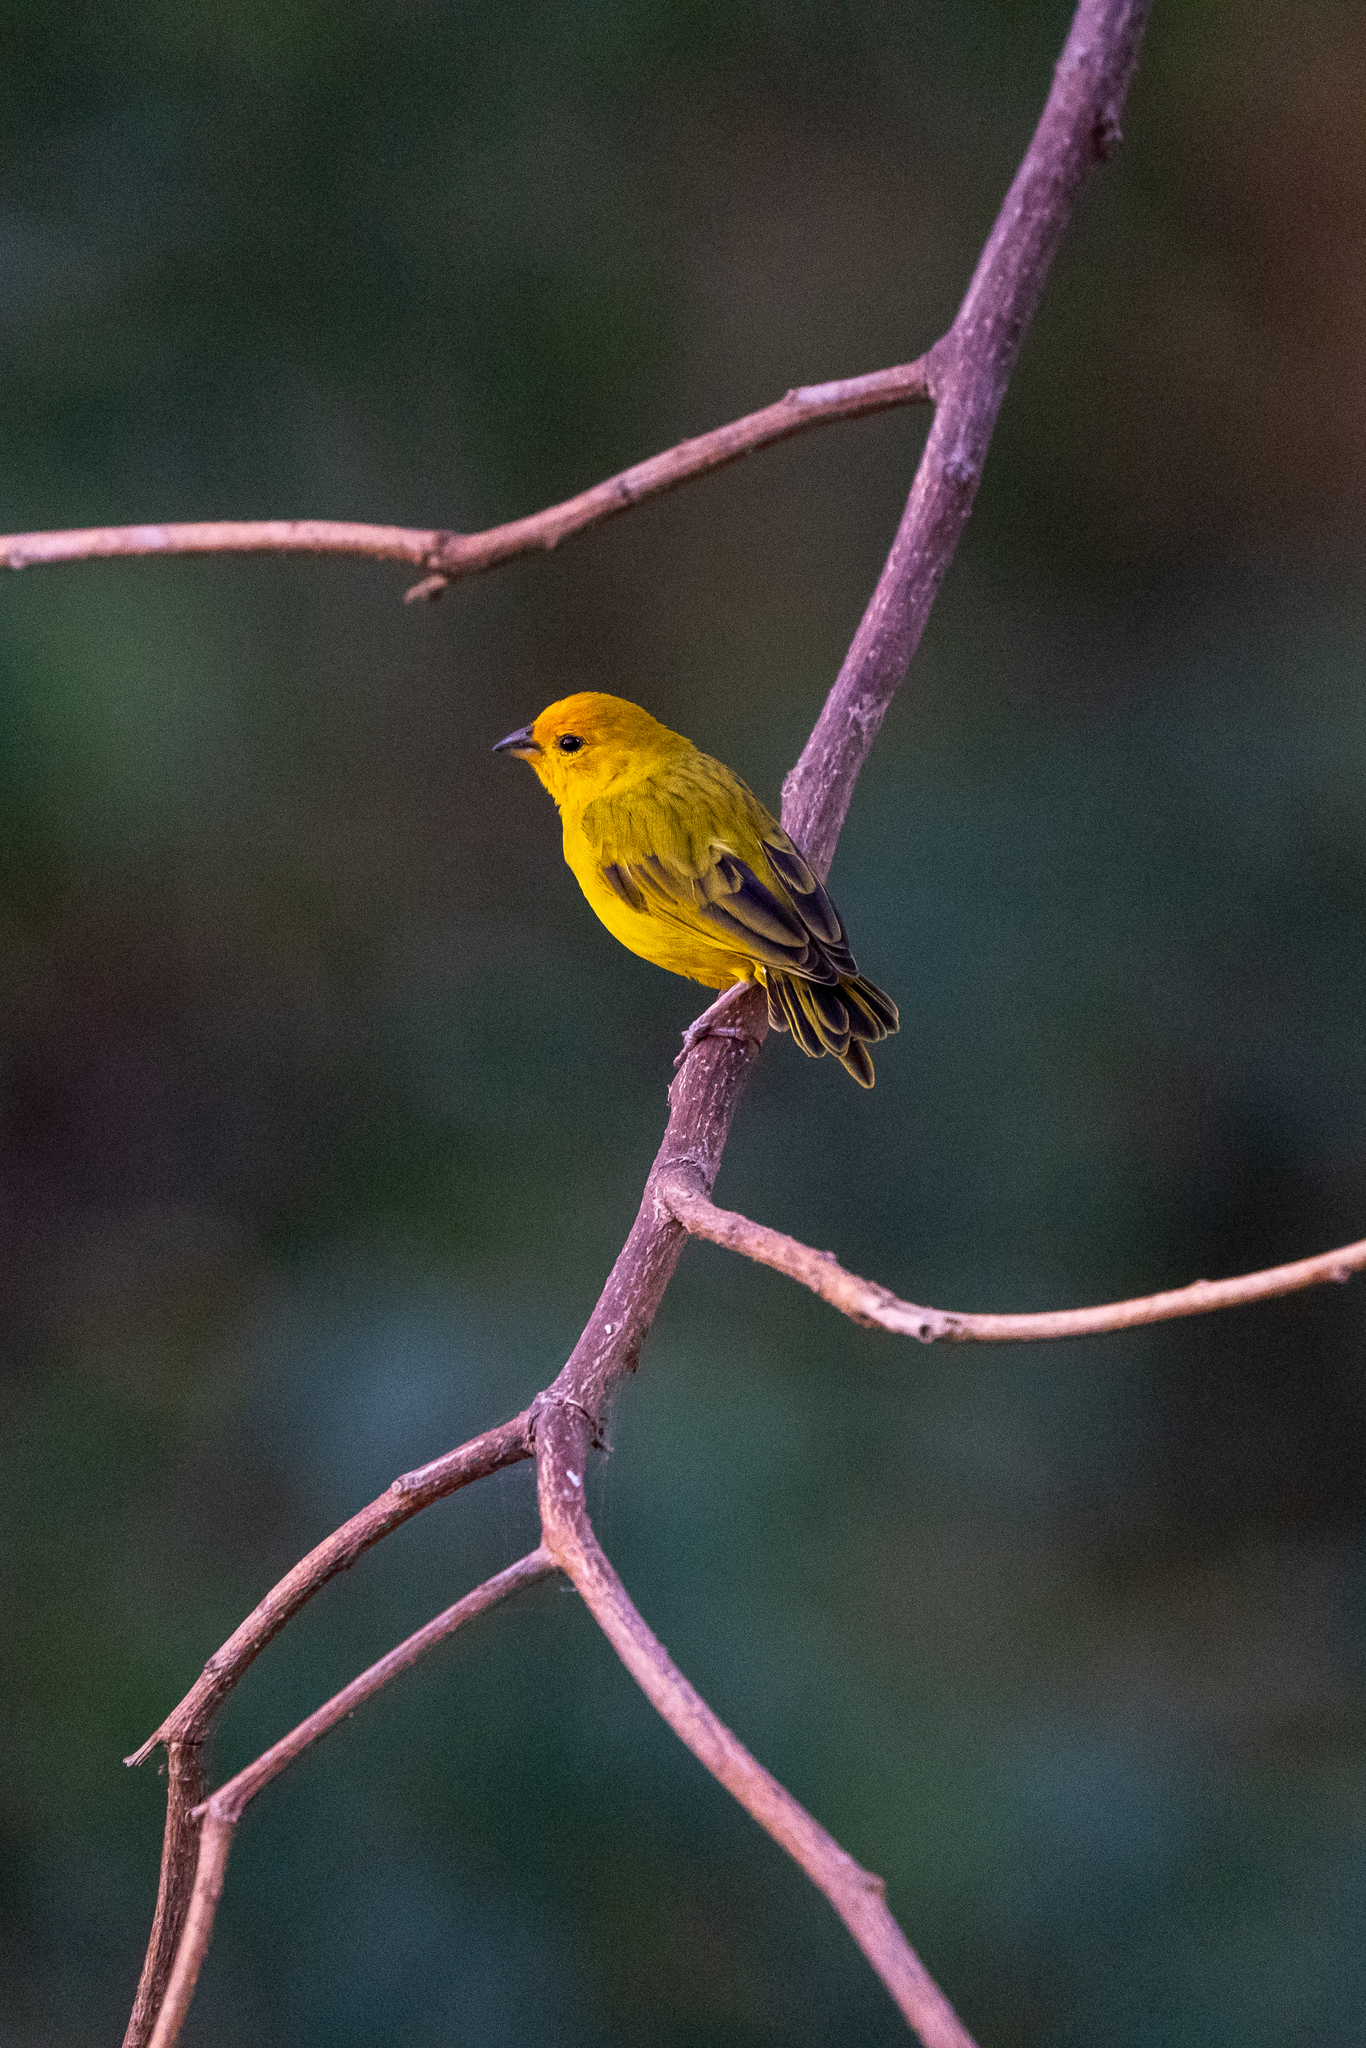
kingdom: Animalia
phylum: Chordata
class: Aves
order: Passeriformes
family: Thraupidae
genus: Sicalis
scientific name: Sicalis flaveola
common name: Saffron finch
